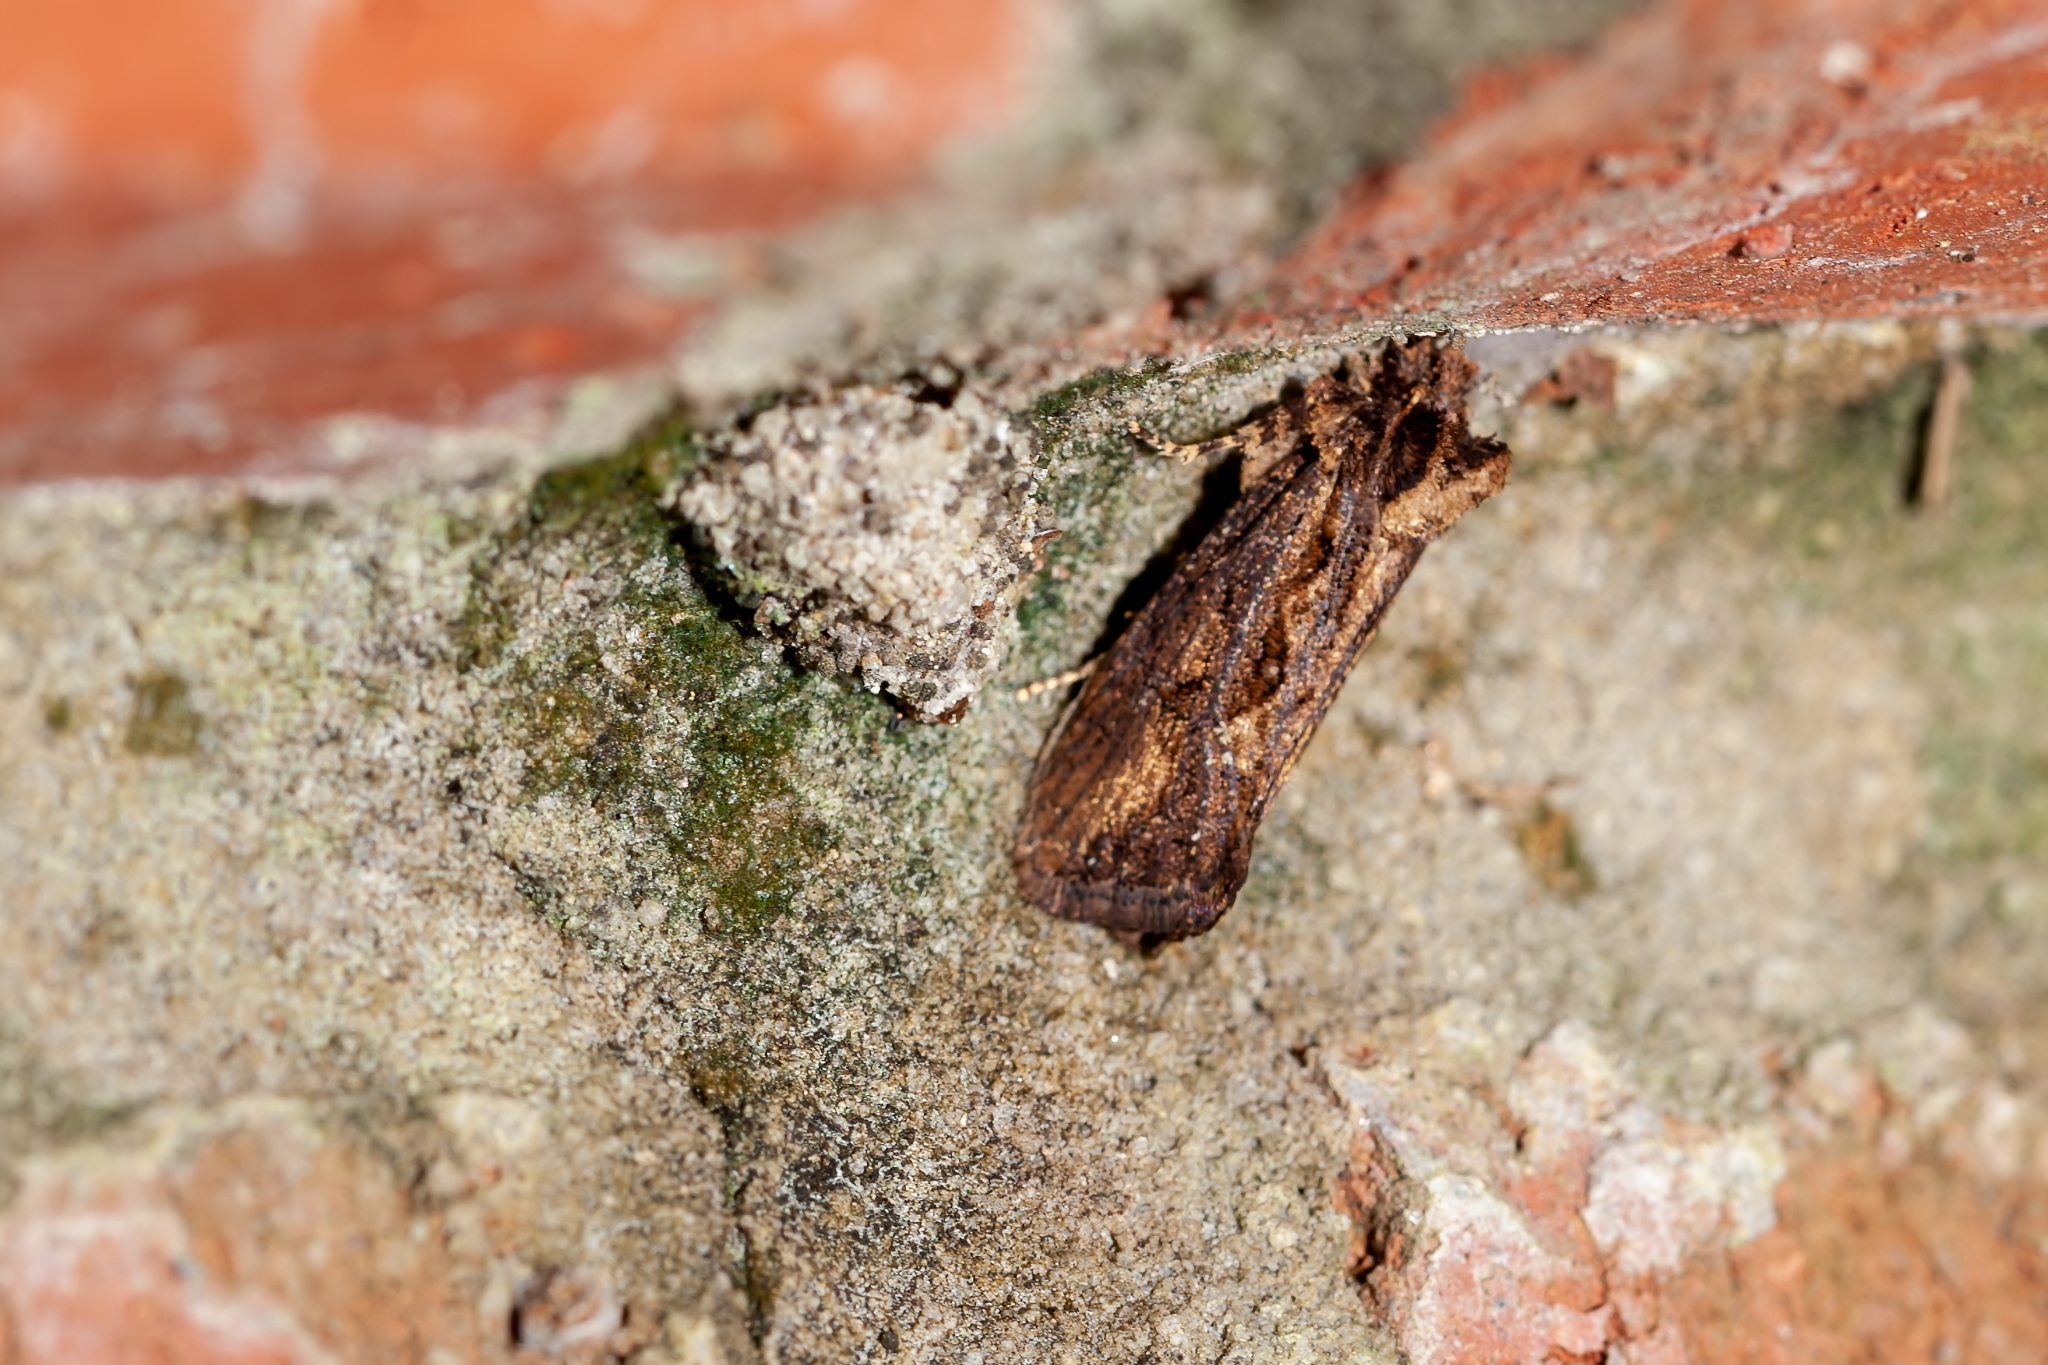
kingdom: Animalia
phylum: Arthropoda
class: Insecta
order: Lepidoptera
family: Tineidae
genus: Acrolophus
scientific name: Acrolophus walsinghami
